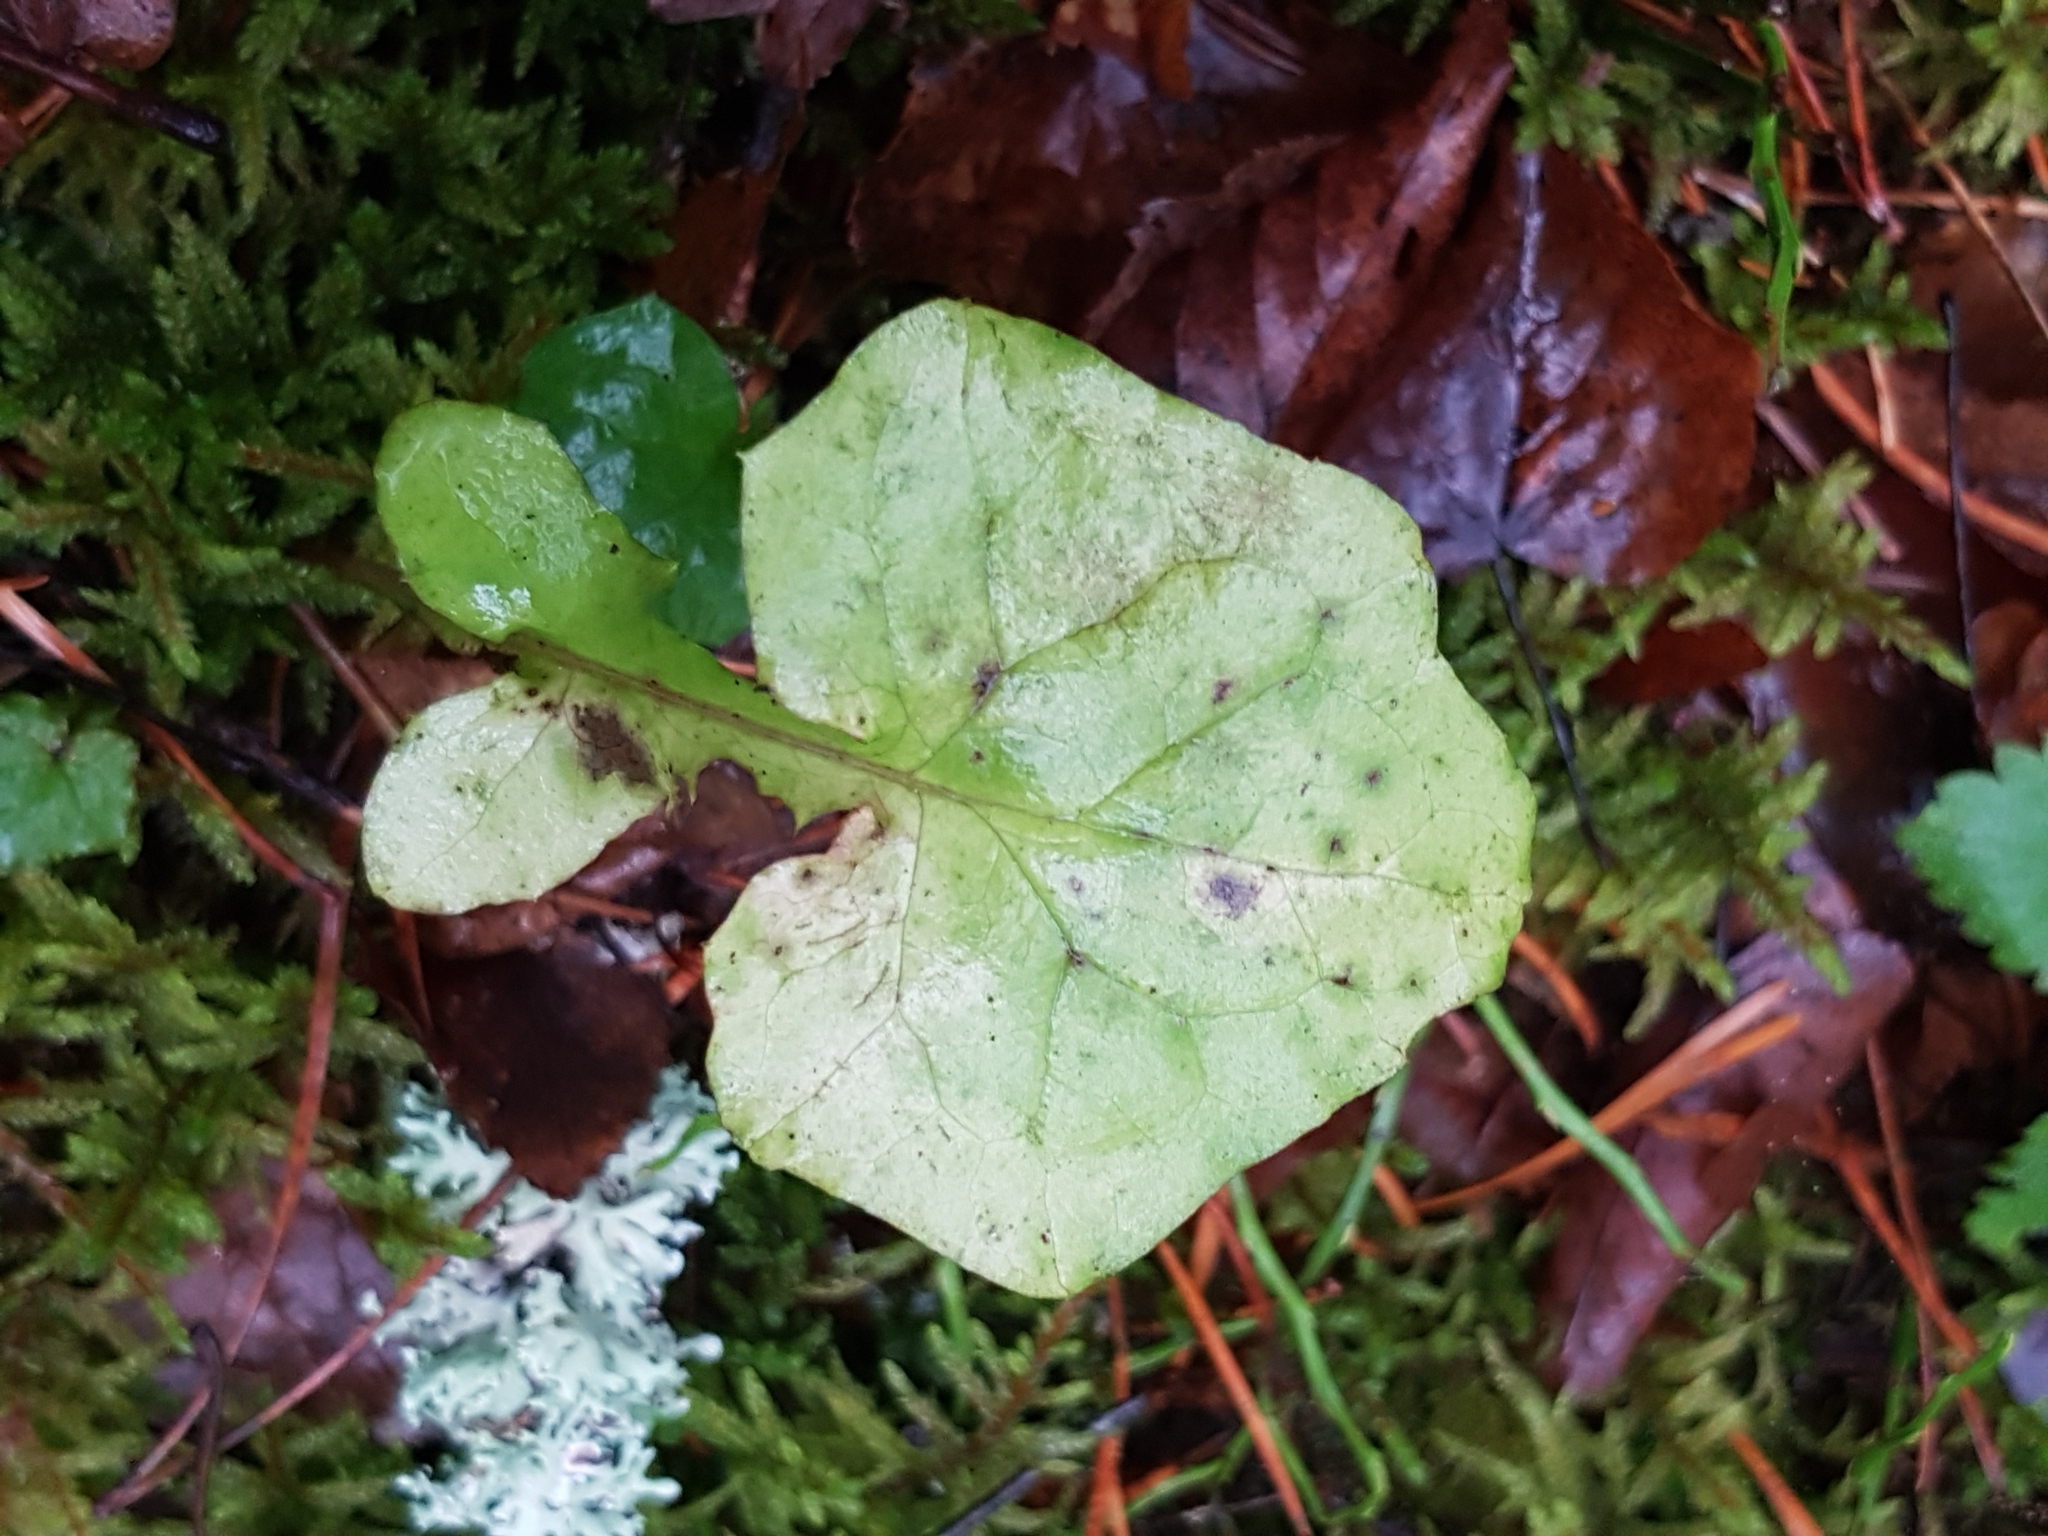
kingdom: Plantae
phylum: Tracheophyta
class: Magnoliopsida
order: Asterales
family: Asteraceae
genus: Mycelis
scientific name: Mycelis muralis
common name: Wall lettuce
